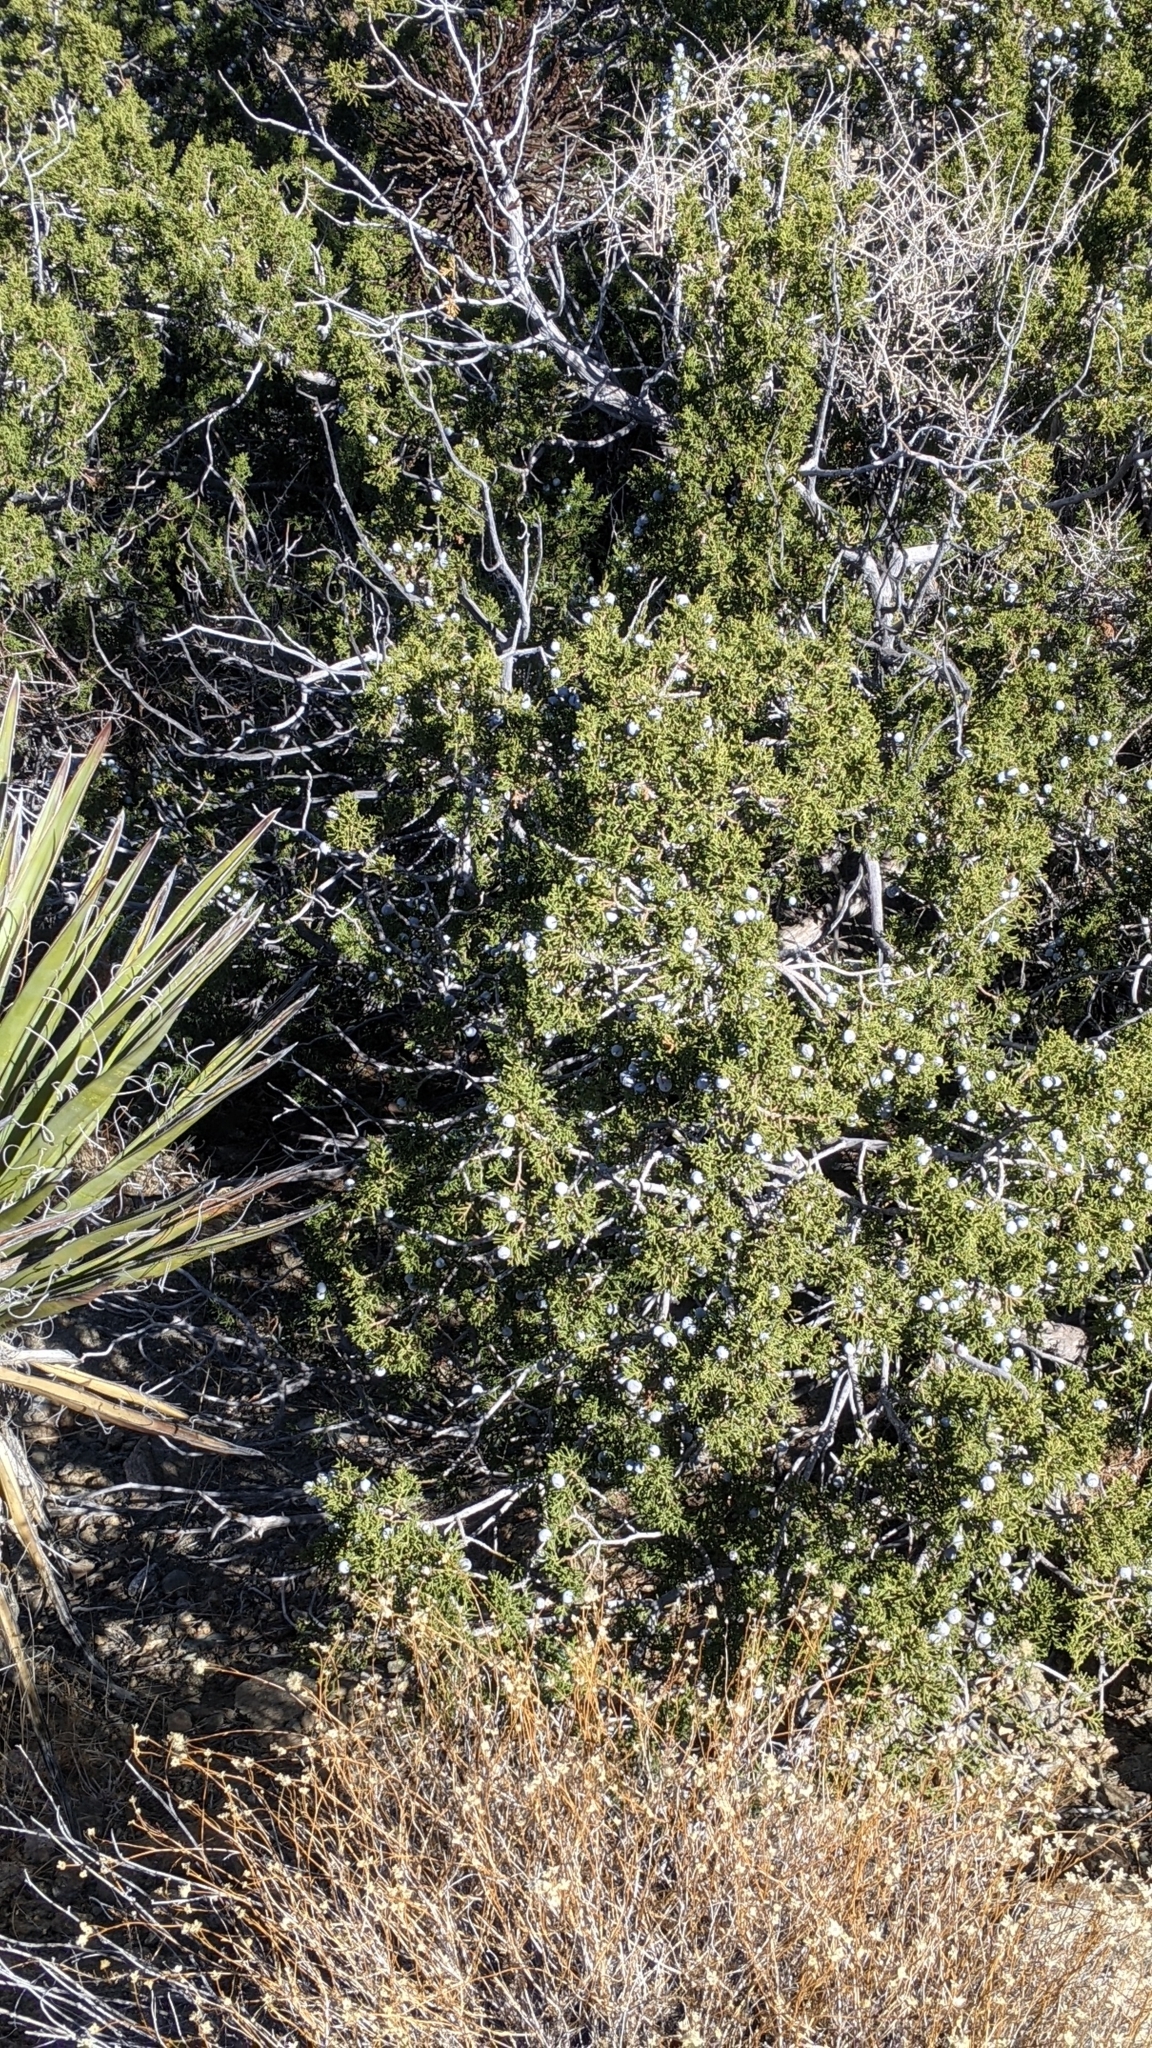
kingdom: Plantae
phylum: Tracheophyta
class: Pinopsida
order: Pinales
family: Cupressaceae
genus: Juniperus
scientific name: Juniperus californica
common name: California juniper
